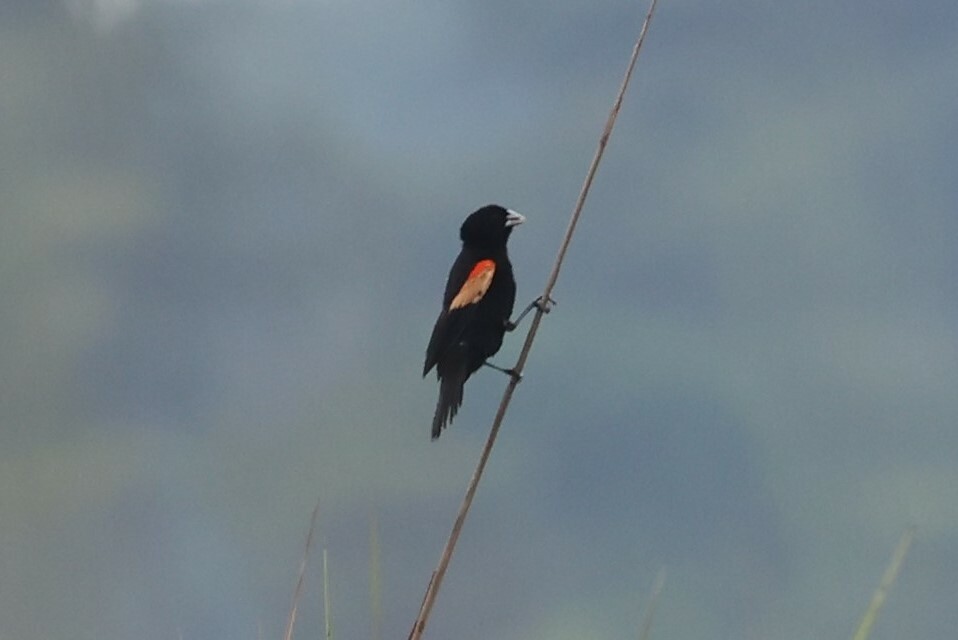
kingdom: Animalia
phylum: Chordata
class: Aves
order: Passeriformes
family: Ploceidae
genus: Euplectes
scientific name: Euplectes axillaris
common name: Fan-tailed widowbird
